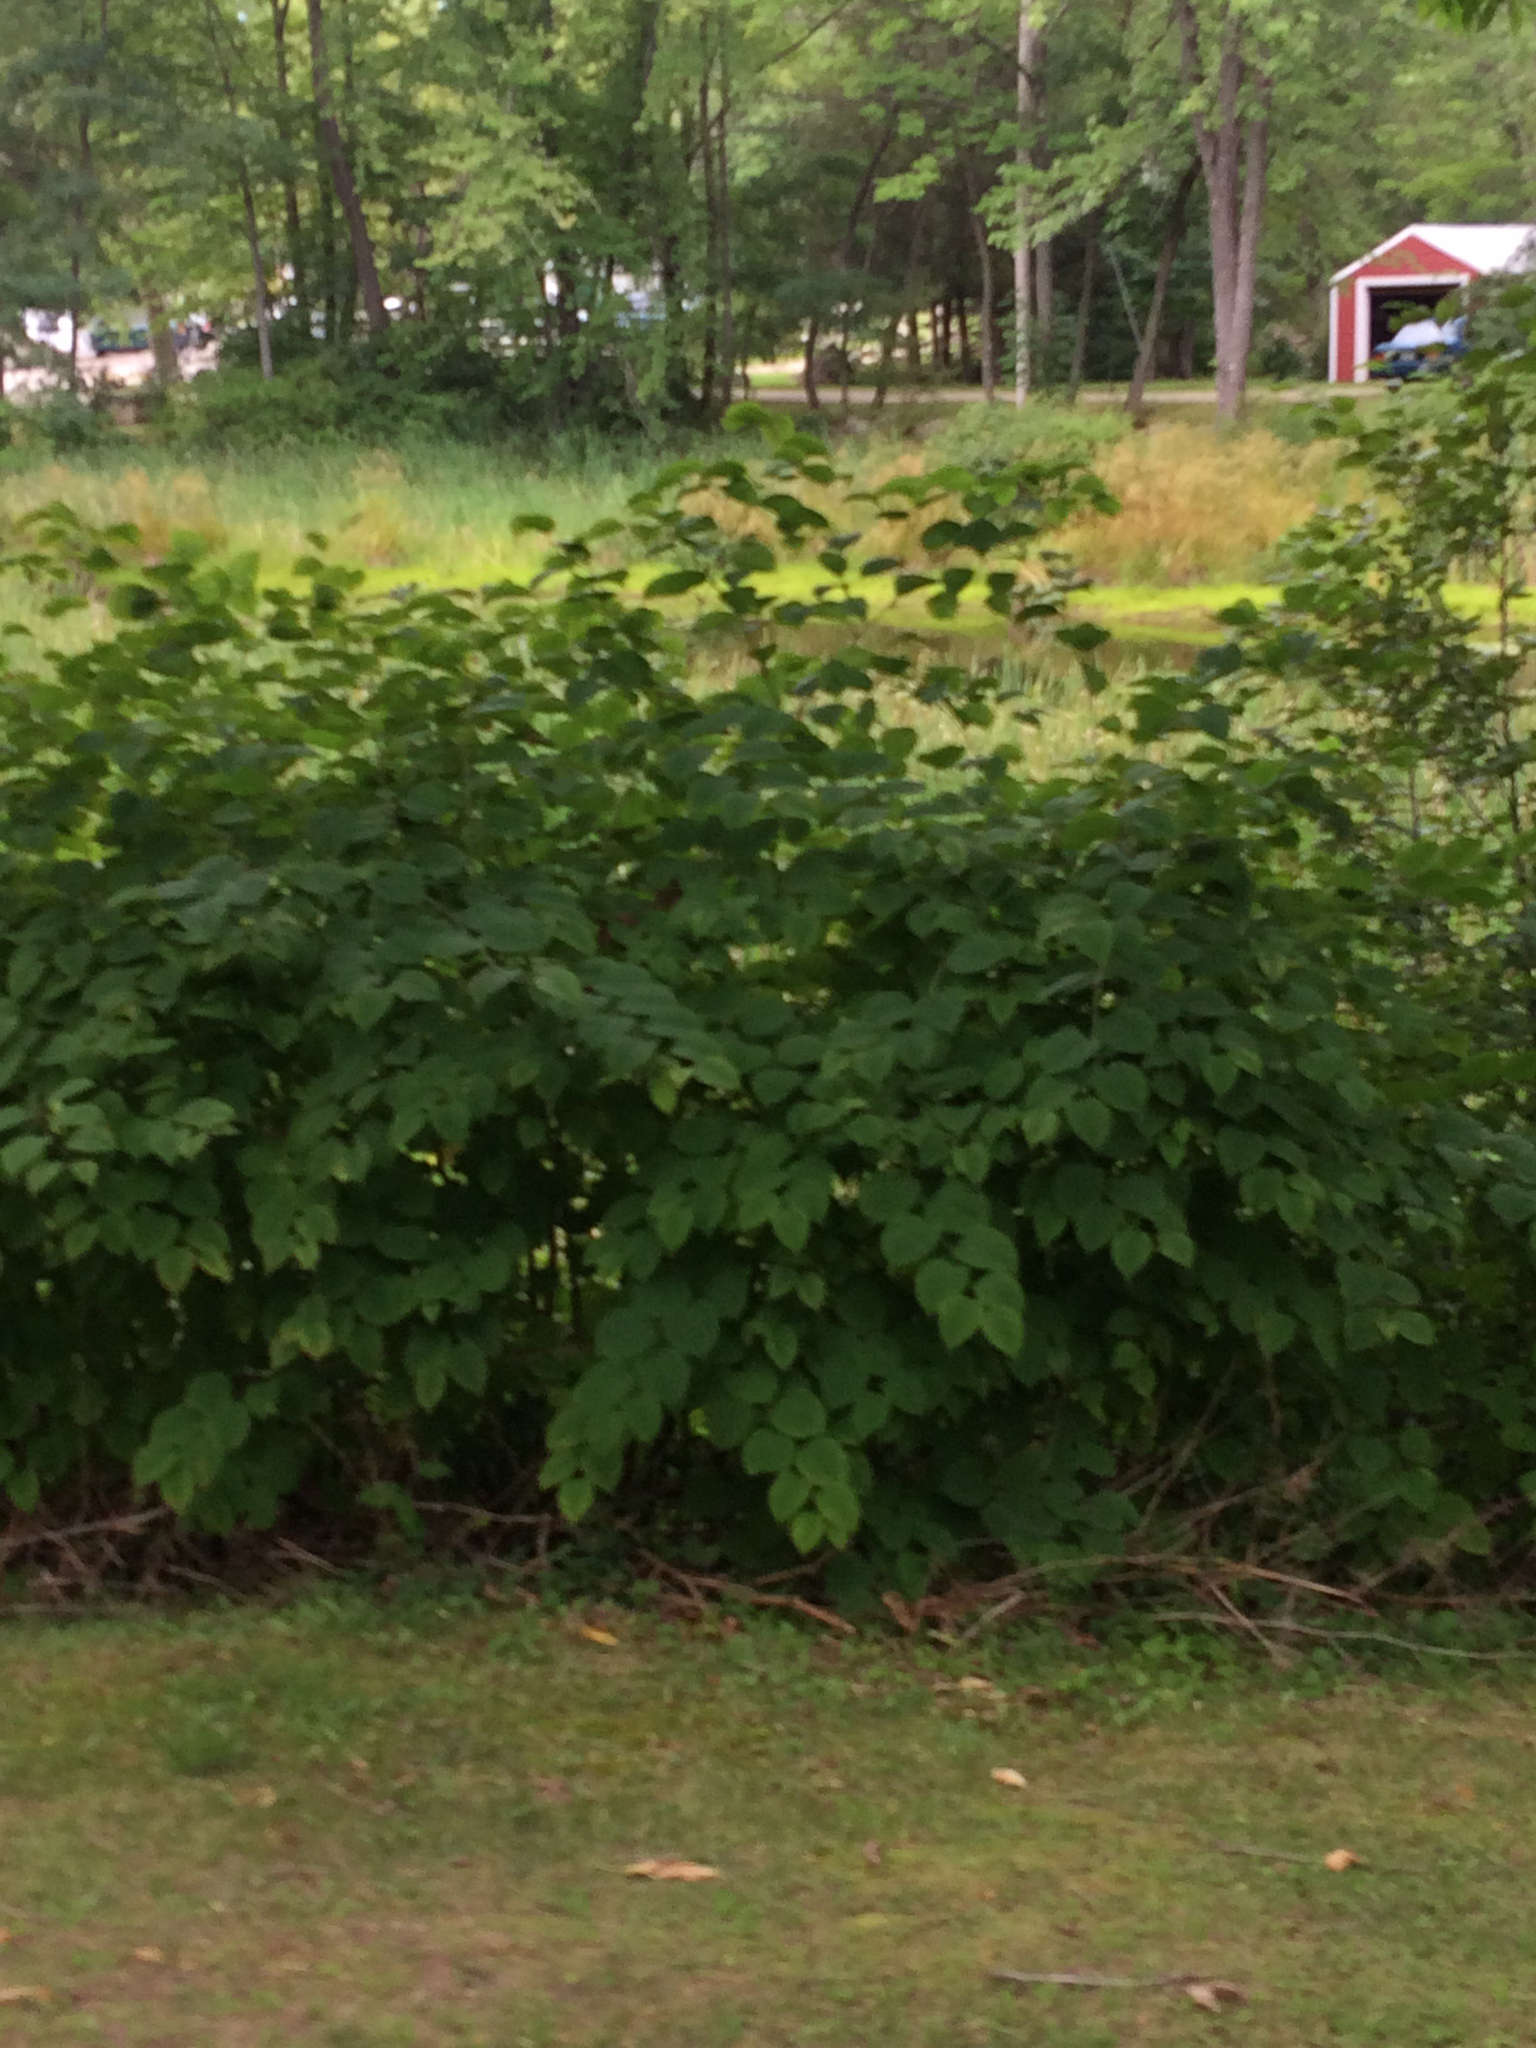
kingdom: Plantae
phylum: Tracheophyta
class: Magnoliopsida
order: Caryophyllales
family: Polygonaceae
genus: Reynoutria
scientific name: Reynoutria japonica
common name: Japanese knotweed
